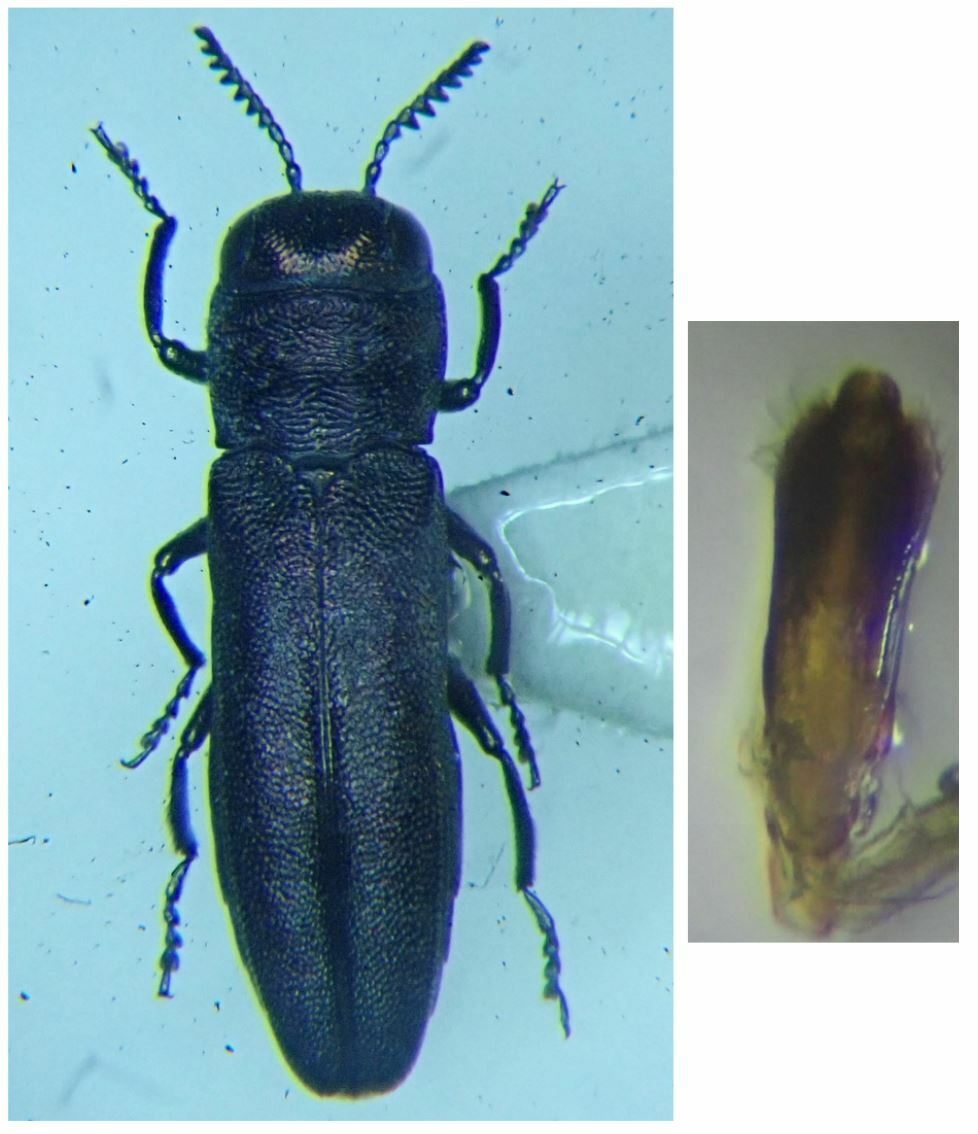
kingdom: Animalia
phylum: Arthropoda
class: Insecta
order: Coleoptera
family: Buprestidae
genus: Agrilus
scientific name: Agrilus hyperici
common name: St. john's wort root borer
